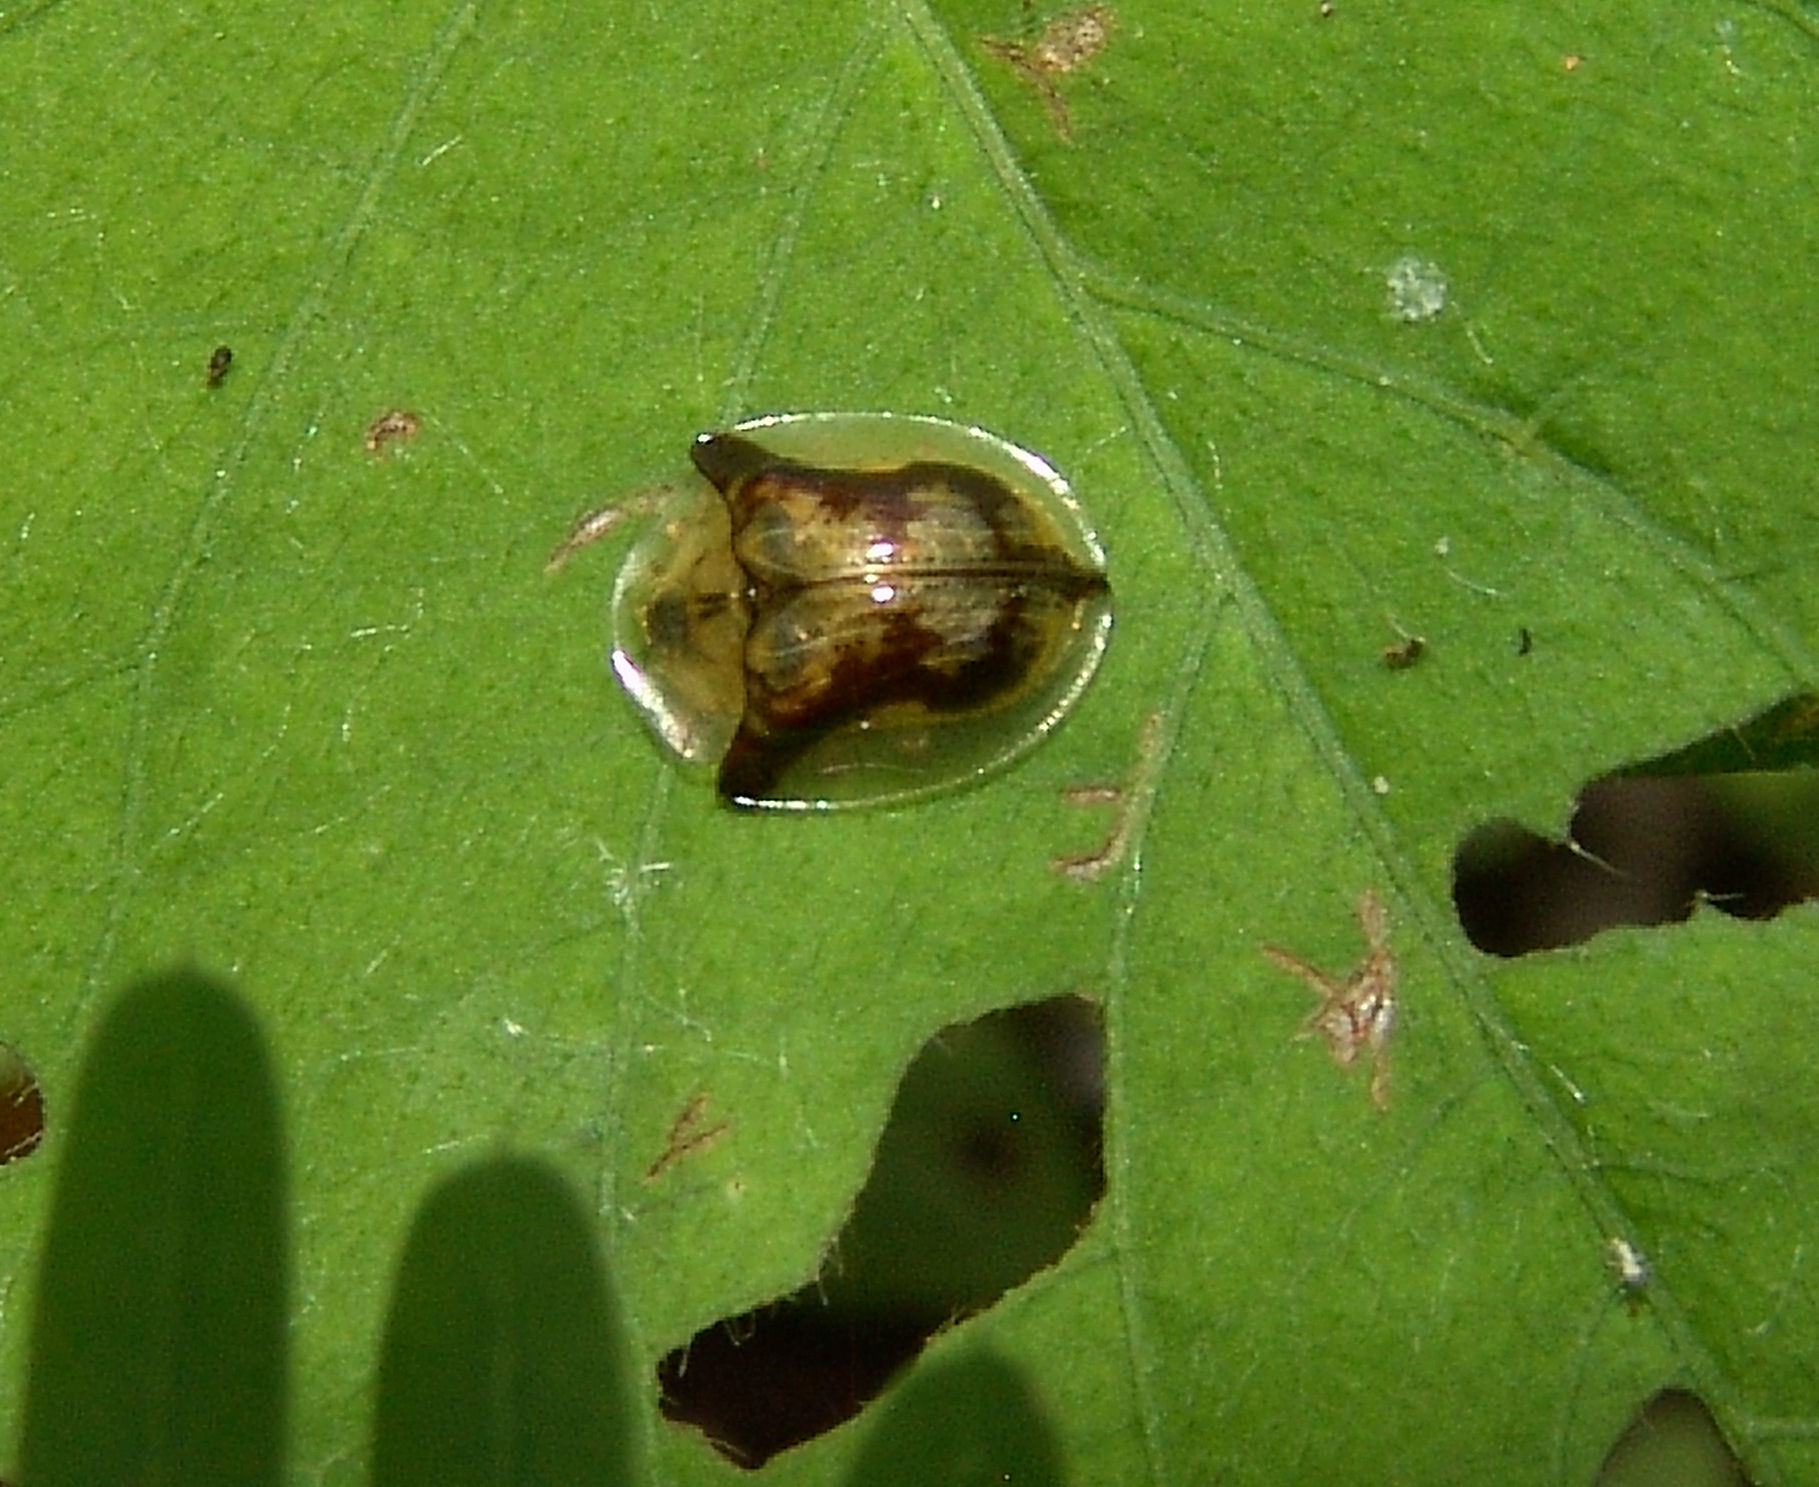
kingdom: Animalia
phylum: Arthropoda
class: Insecta
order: Coleoptera
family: Chrysomelidae
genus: Deloyala
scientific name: Deloyala guttata
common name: Mottled tortoise beetle
